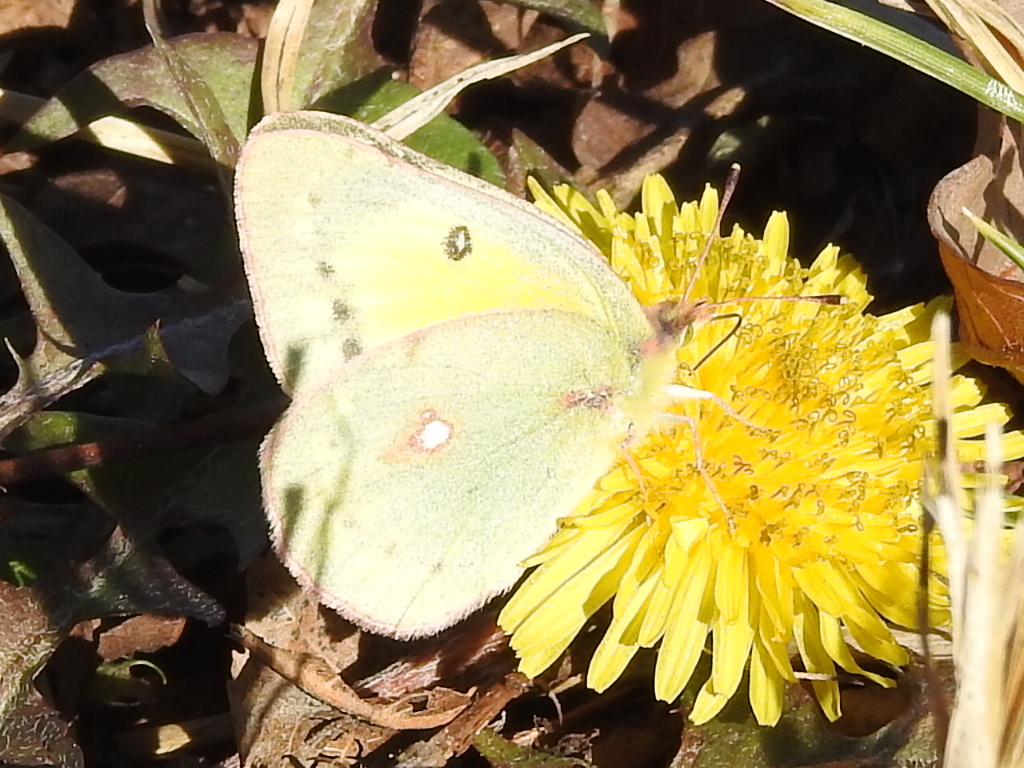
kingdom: Animalia
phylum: Arthropoda
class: Insecta
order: Lepidoptera
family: Pieridae
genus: Colias
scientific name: Colias eurytheme
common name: Alfalfa butterfly
